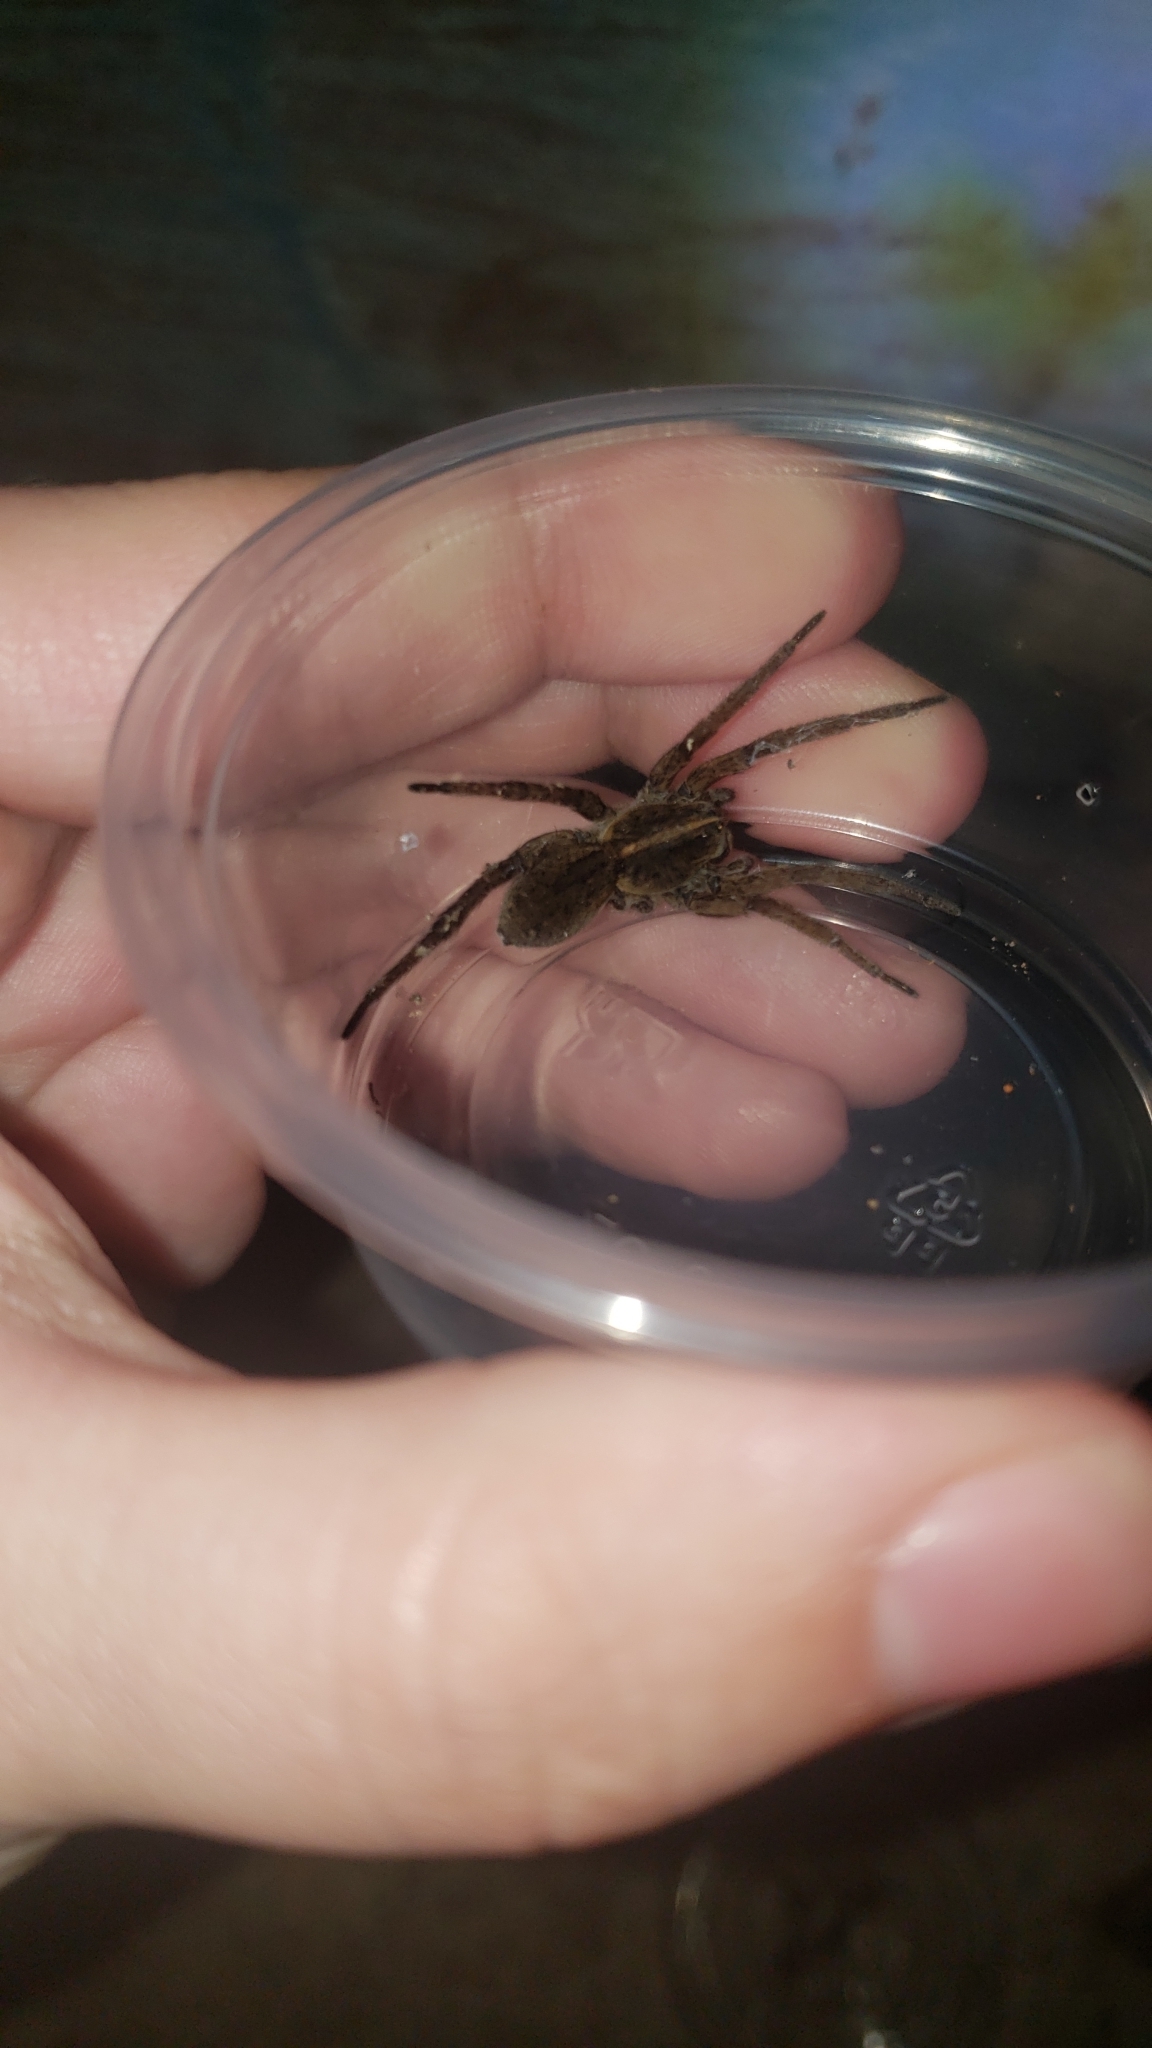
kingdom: Animalia
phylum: Arthropoda
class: Arachnida
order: Araneae
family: Lycosidae
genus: Tigrosa
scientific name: Tigrosa helluo
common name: Wetland giant wolf spider
